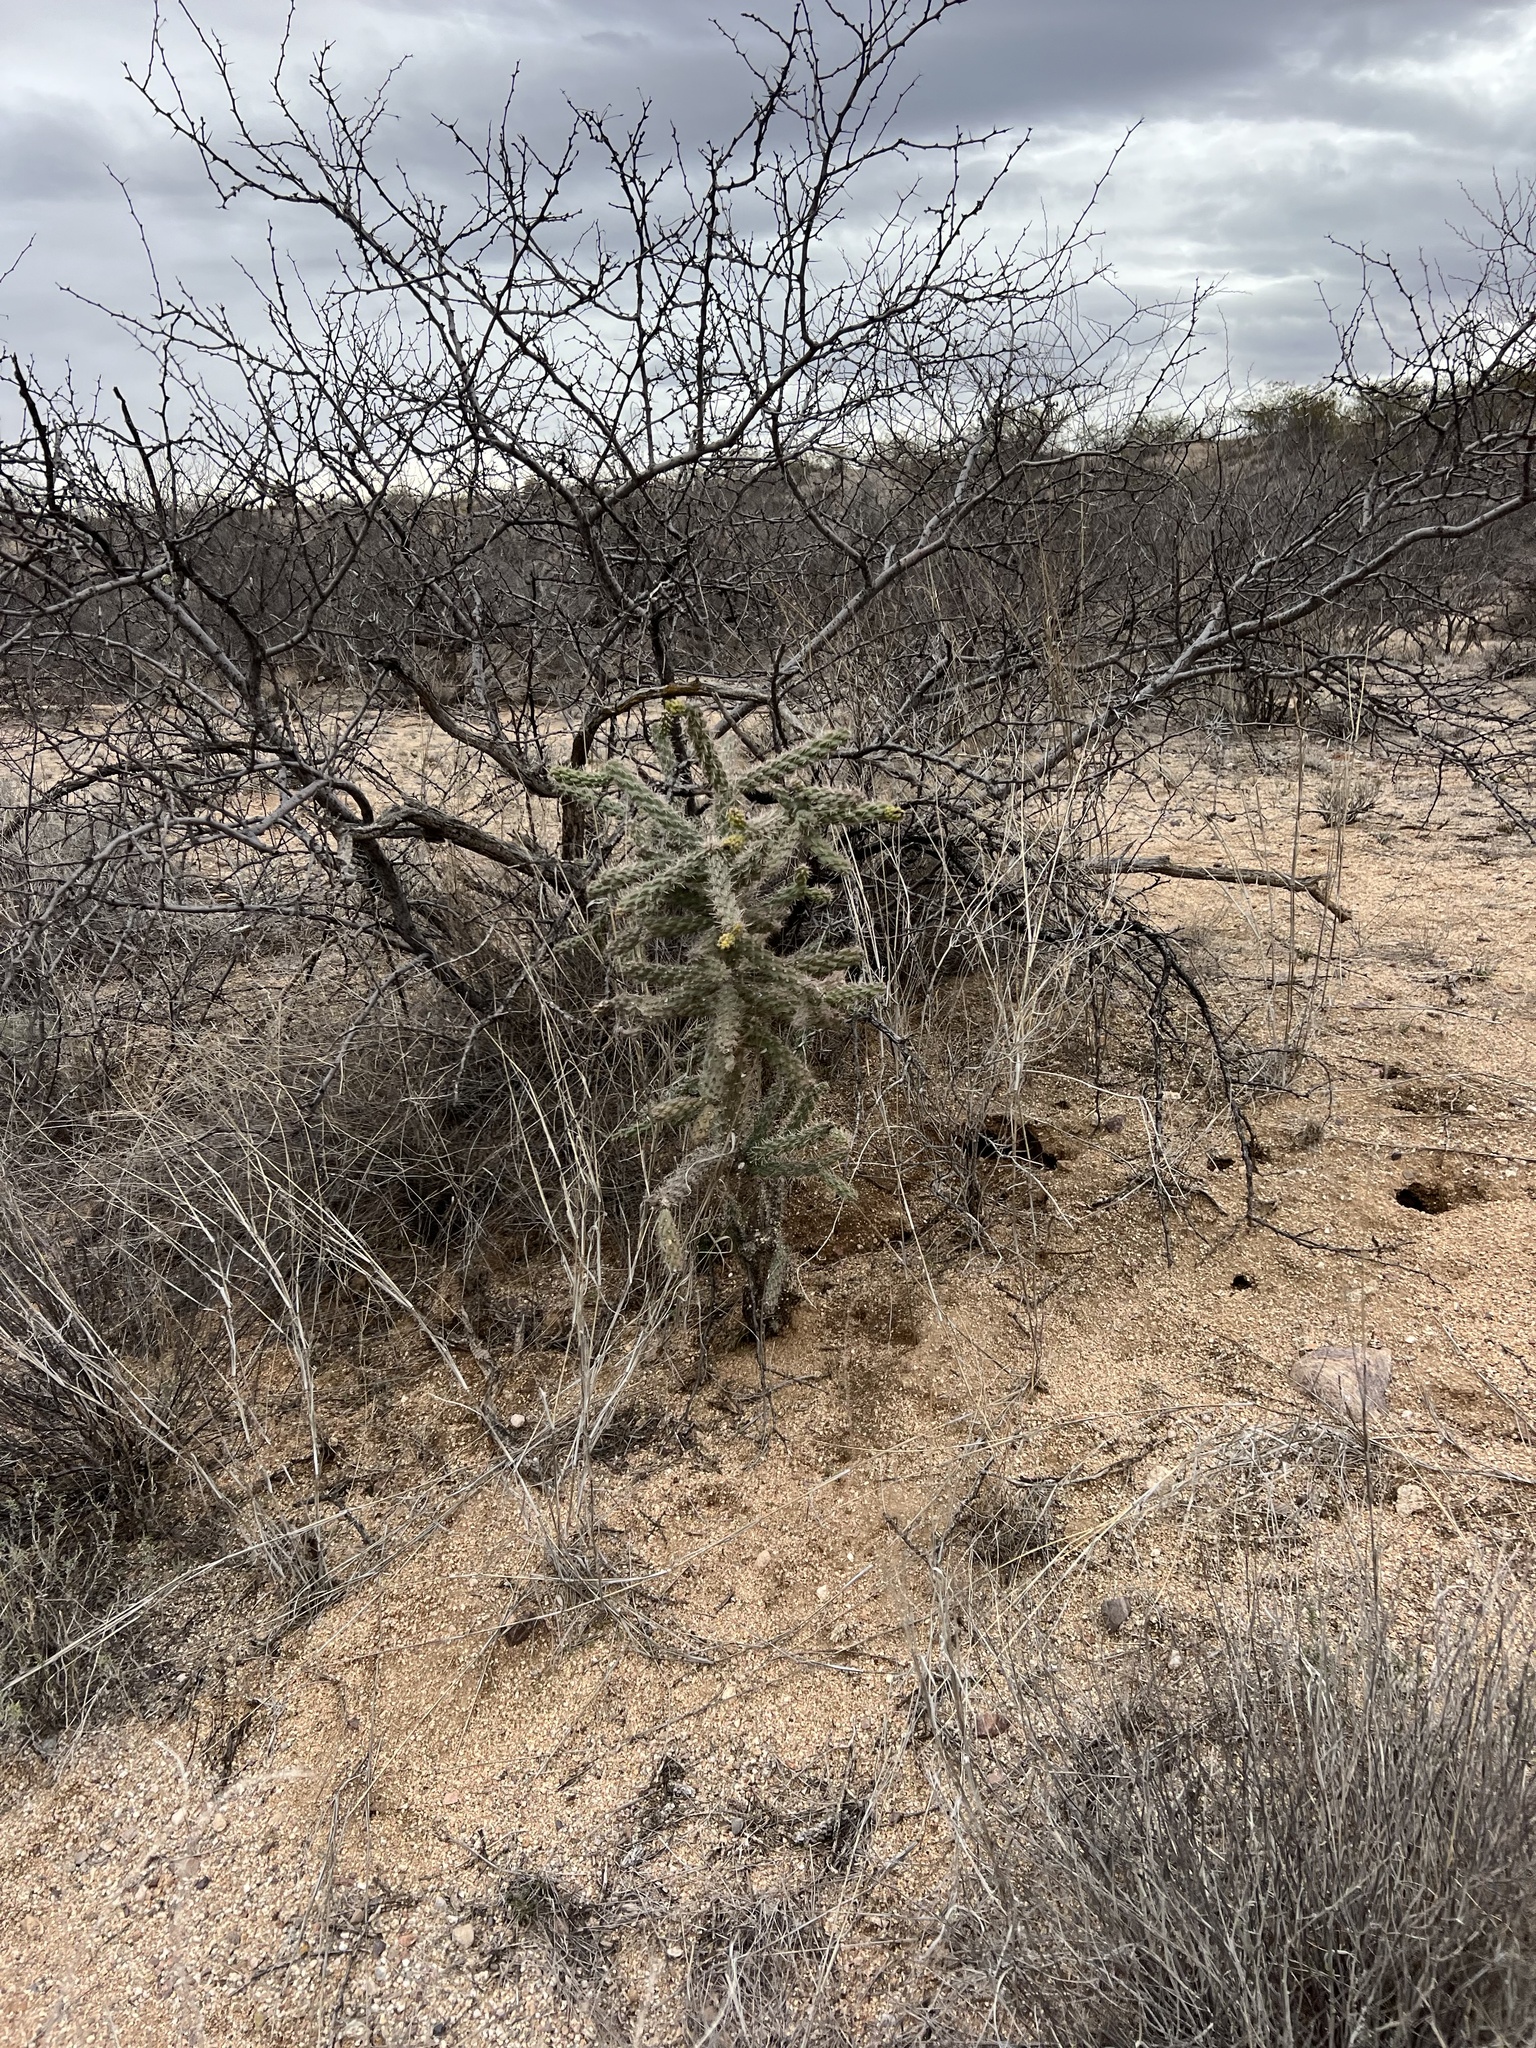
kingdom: Plantae
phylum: Tracheophyta
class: Magnoliopsida
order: Caryophyllales
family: Cactaceae
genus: Cylindropuntia
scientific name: Cylindropuntia imbricata
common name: Candelabrum cactus
